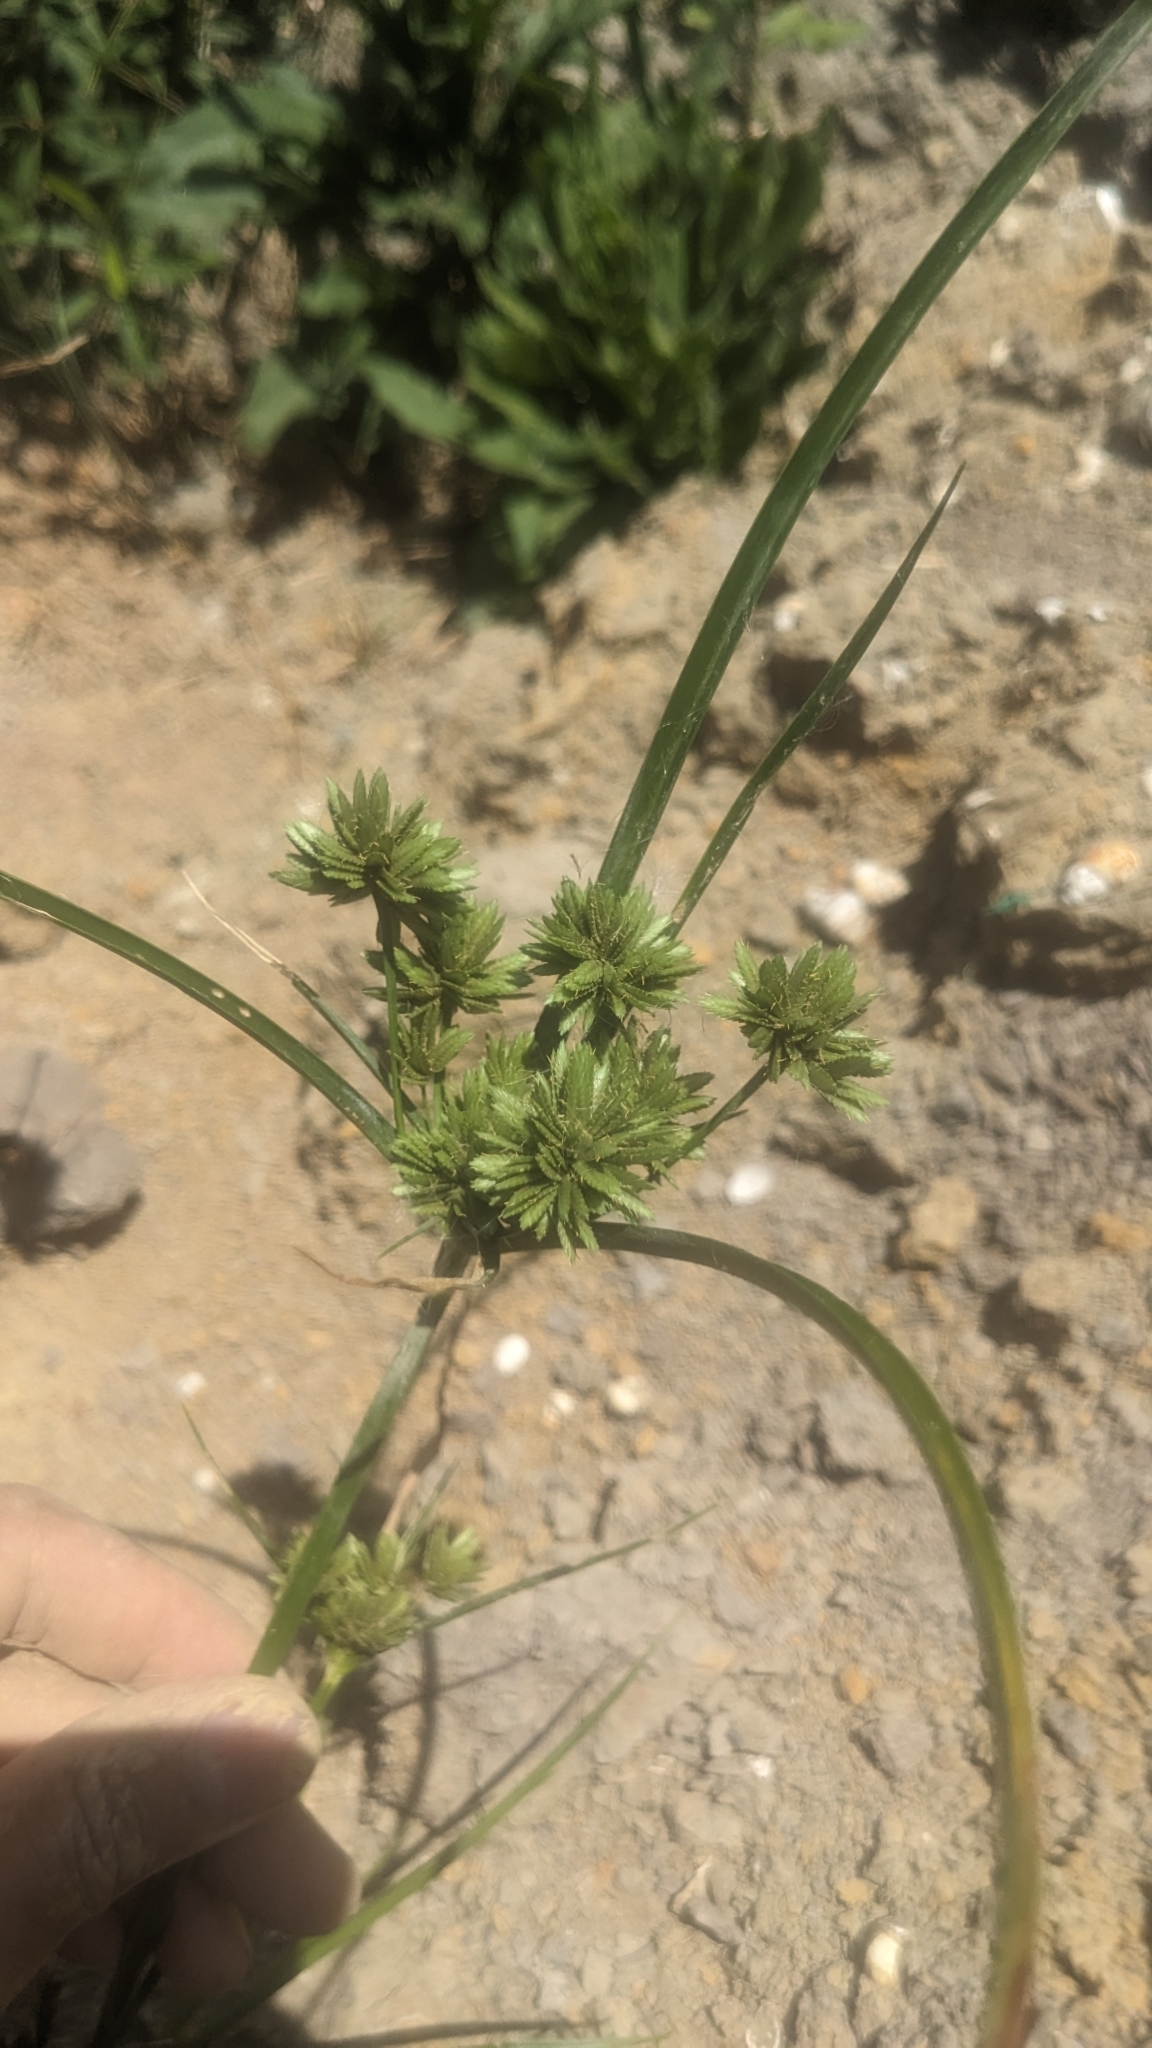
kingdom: Plantae
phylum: Tracheophyta
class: Liliopsida
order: Poales
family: Cyperaceae
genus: Cyperus
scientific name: Cyperus eragrostis
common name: Tall flatsedge
